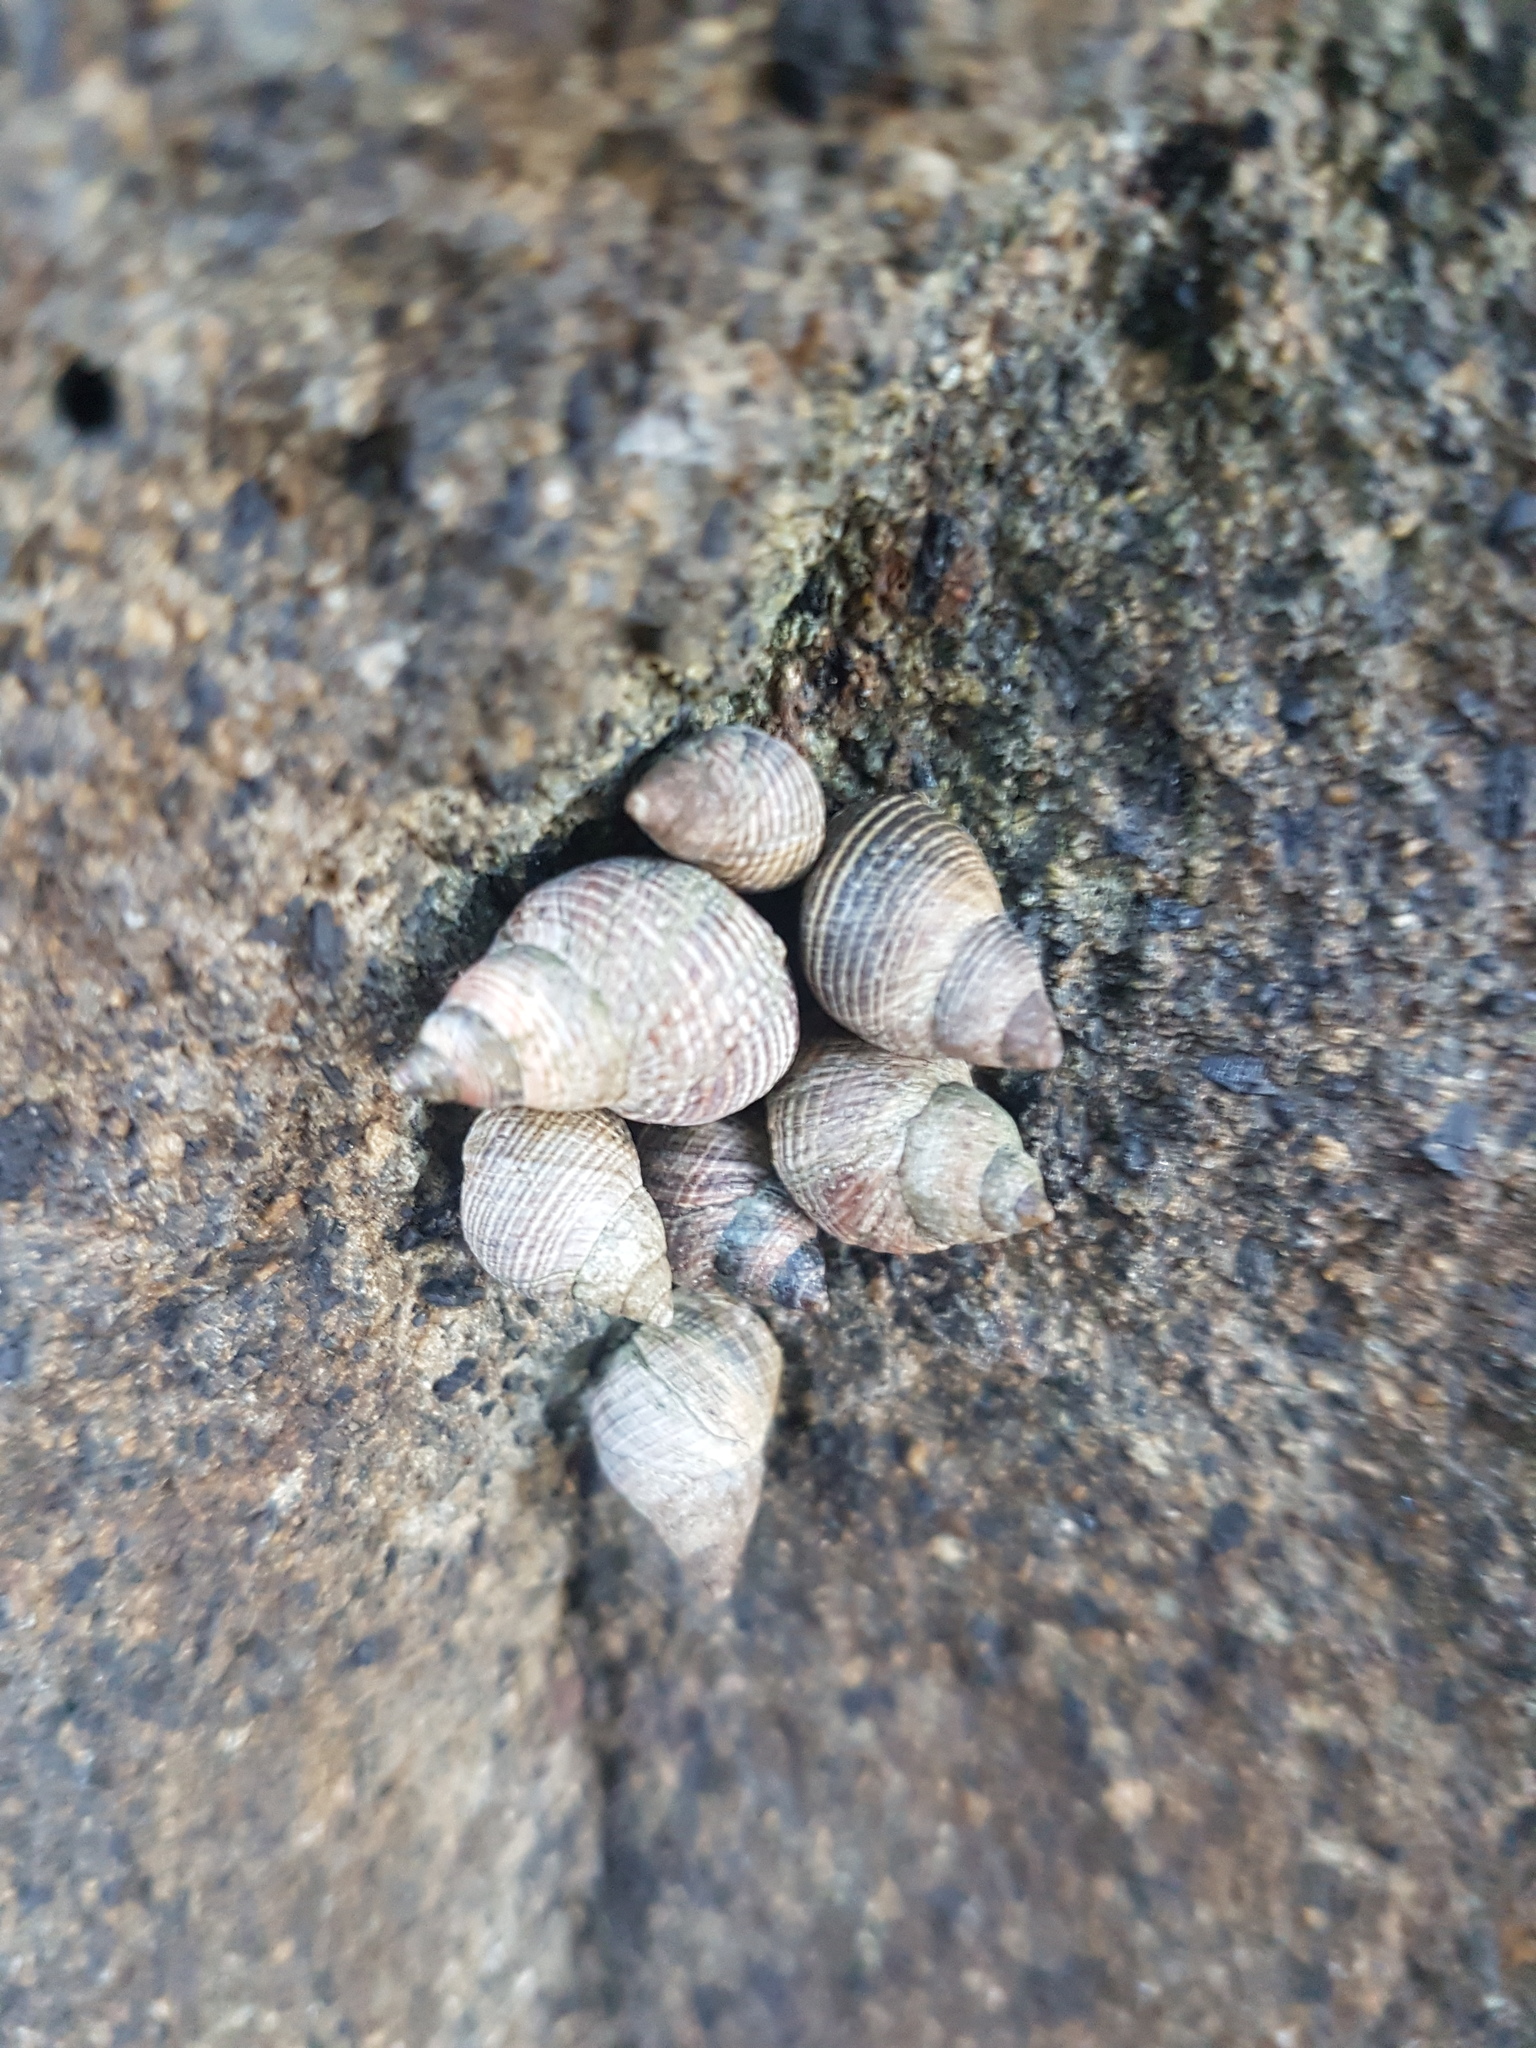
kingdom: Animalia
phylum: Mollusca
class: Gastropoda
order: Littorinimorpha
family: Littorinidae
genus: Austrolittorina
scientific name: Austrolittorina cincta
